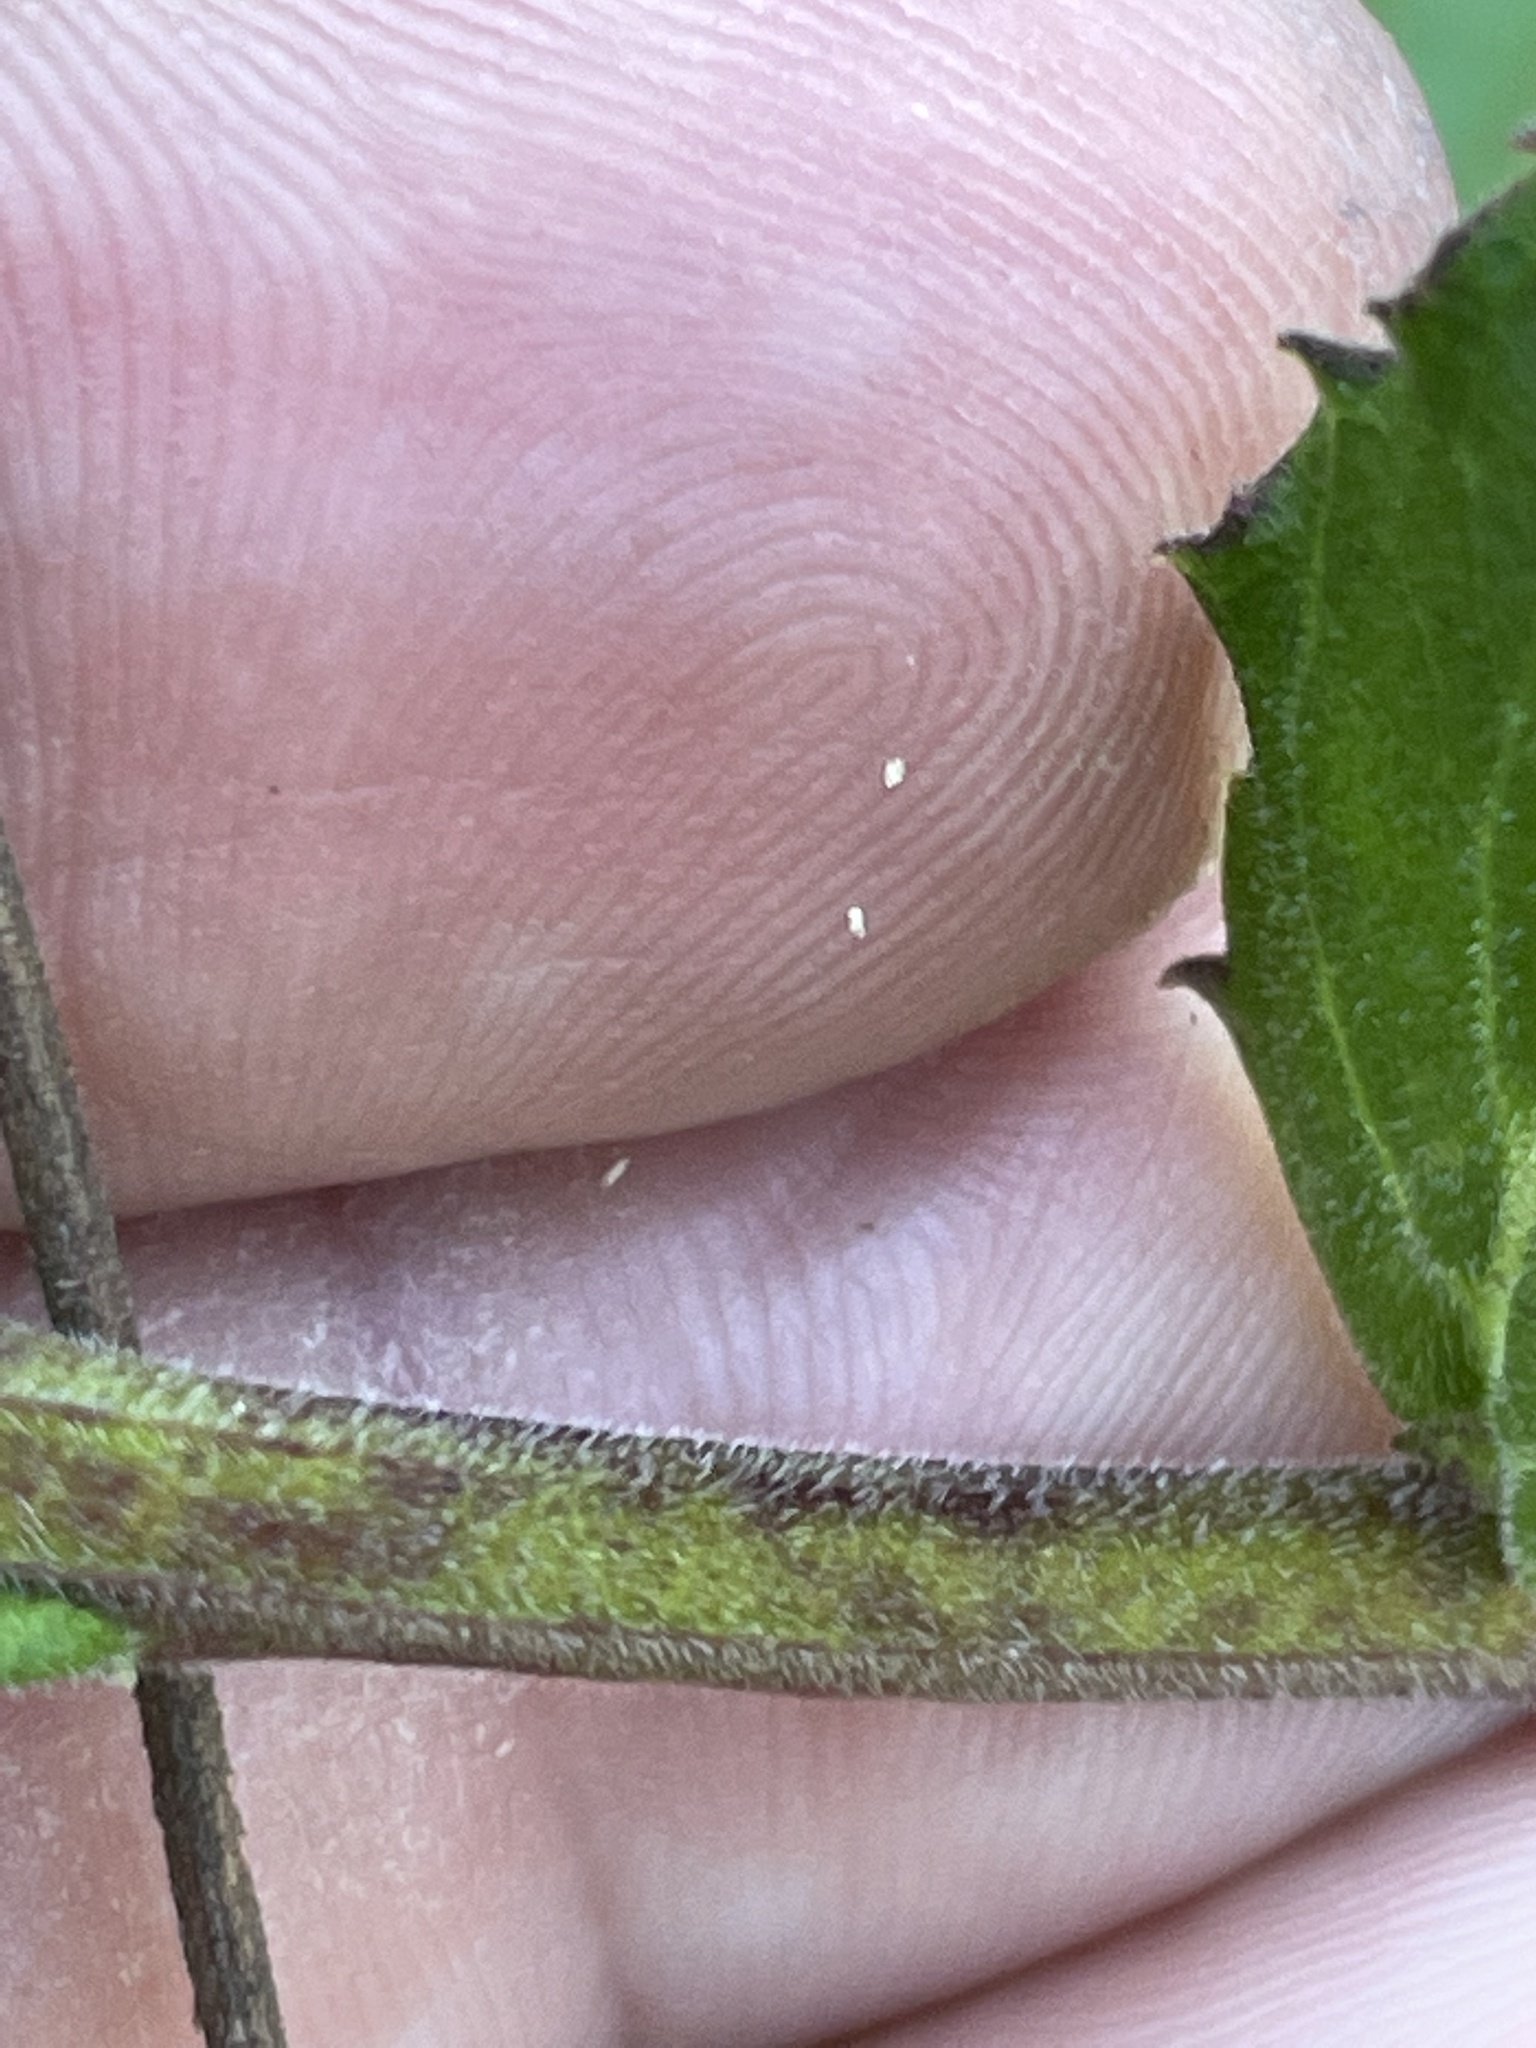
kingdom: Plantae
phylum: Tracheophyta
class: Magnoliopsida
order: Asterales
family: Campanulaceae
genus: Lobelia
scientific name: Lobelia puberula
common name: Purple dewdrop
